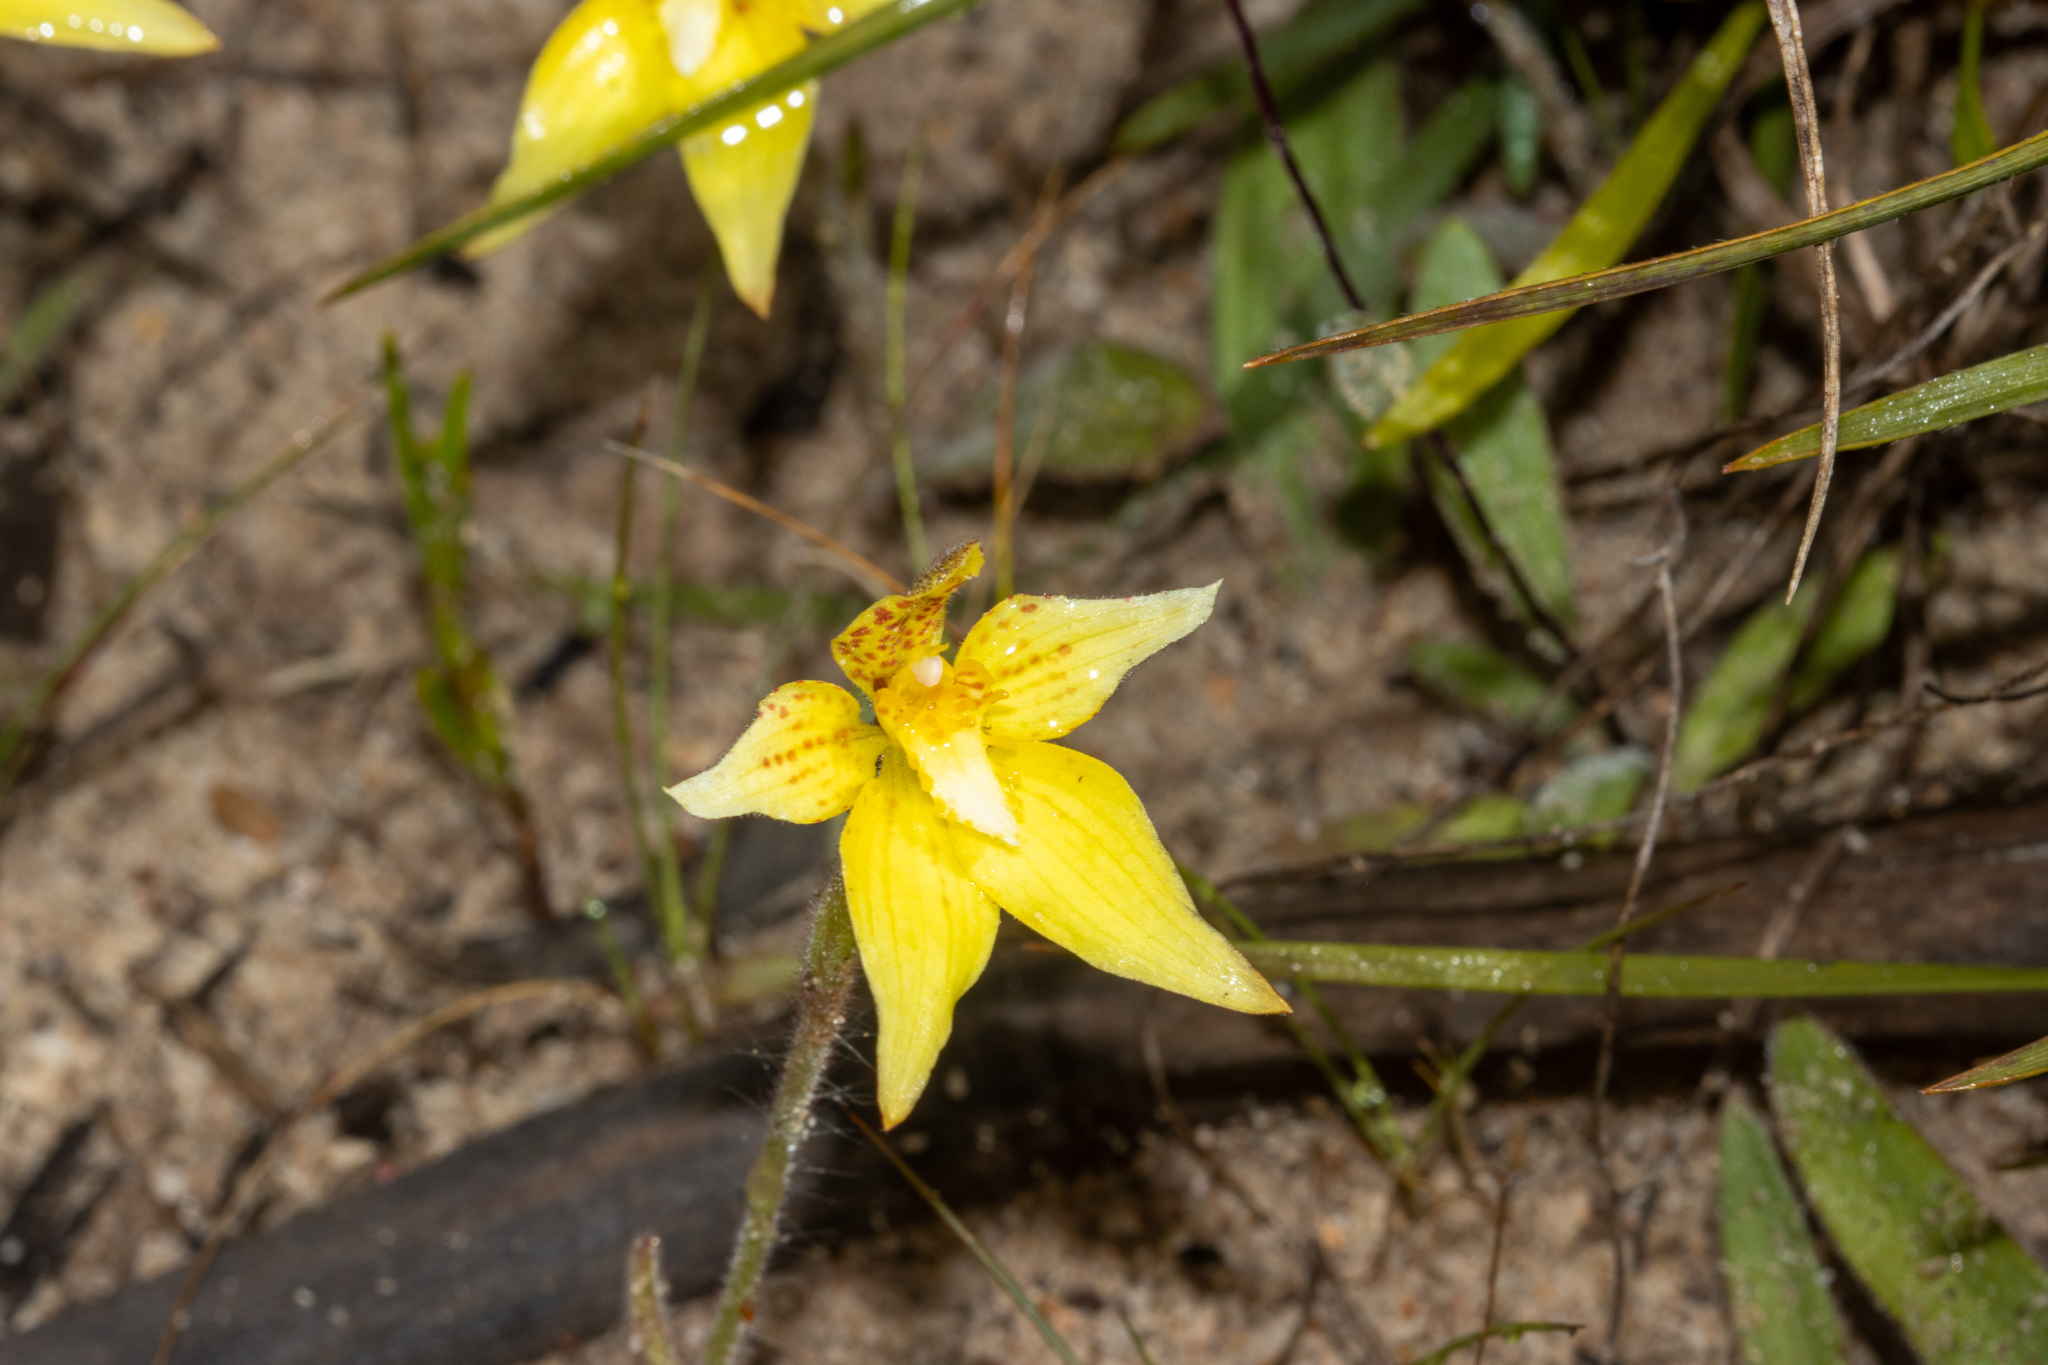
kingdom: Plantae
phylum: Tracheophyta
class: Liliopsida
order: Asparagales
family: Orchidaceae
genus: Caladenia
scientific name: Caladenia flava
